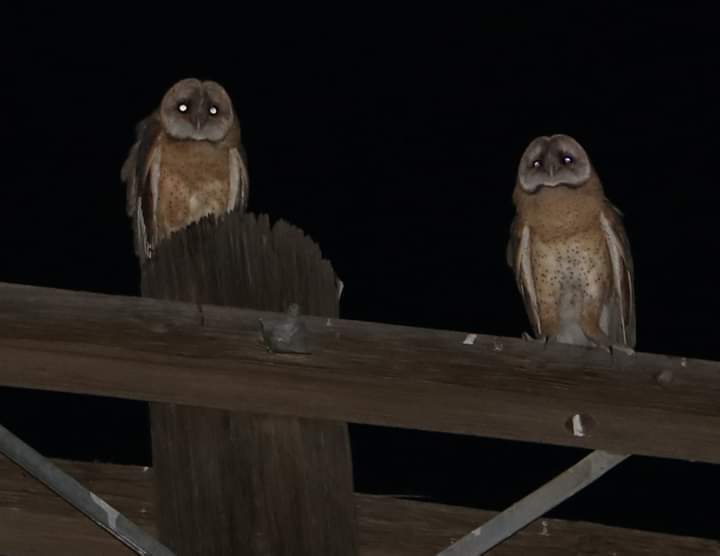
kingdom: Animalia
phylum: Chordata
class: Aves
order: Strigiformes
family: Tytonidae
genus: Tyto
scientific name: Tyto alba
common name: Barn owl
